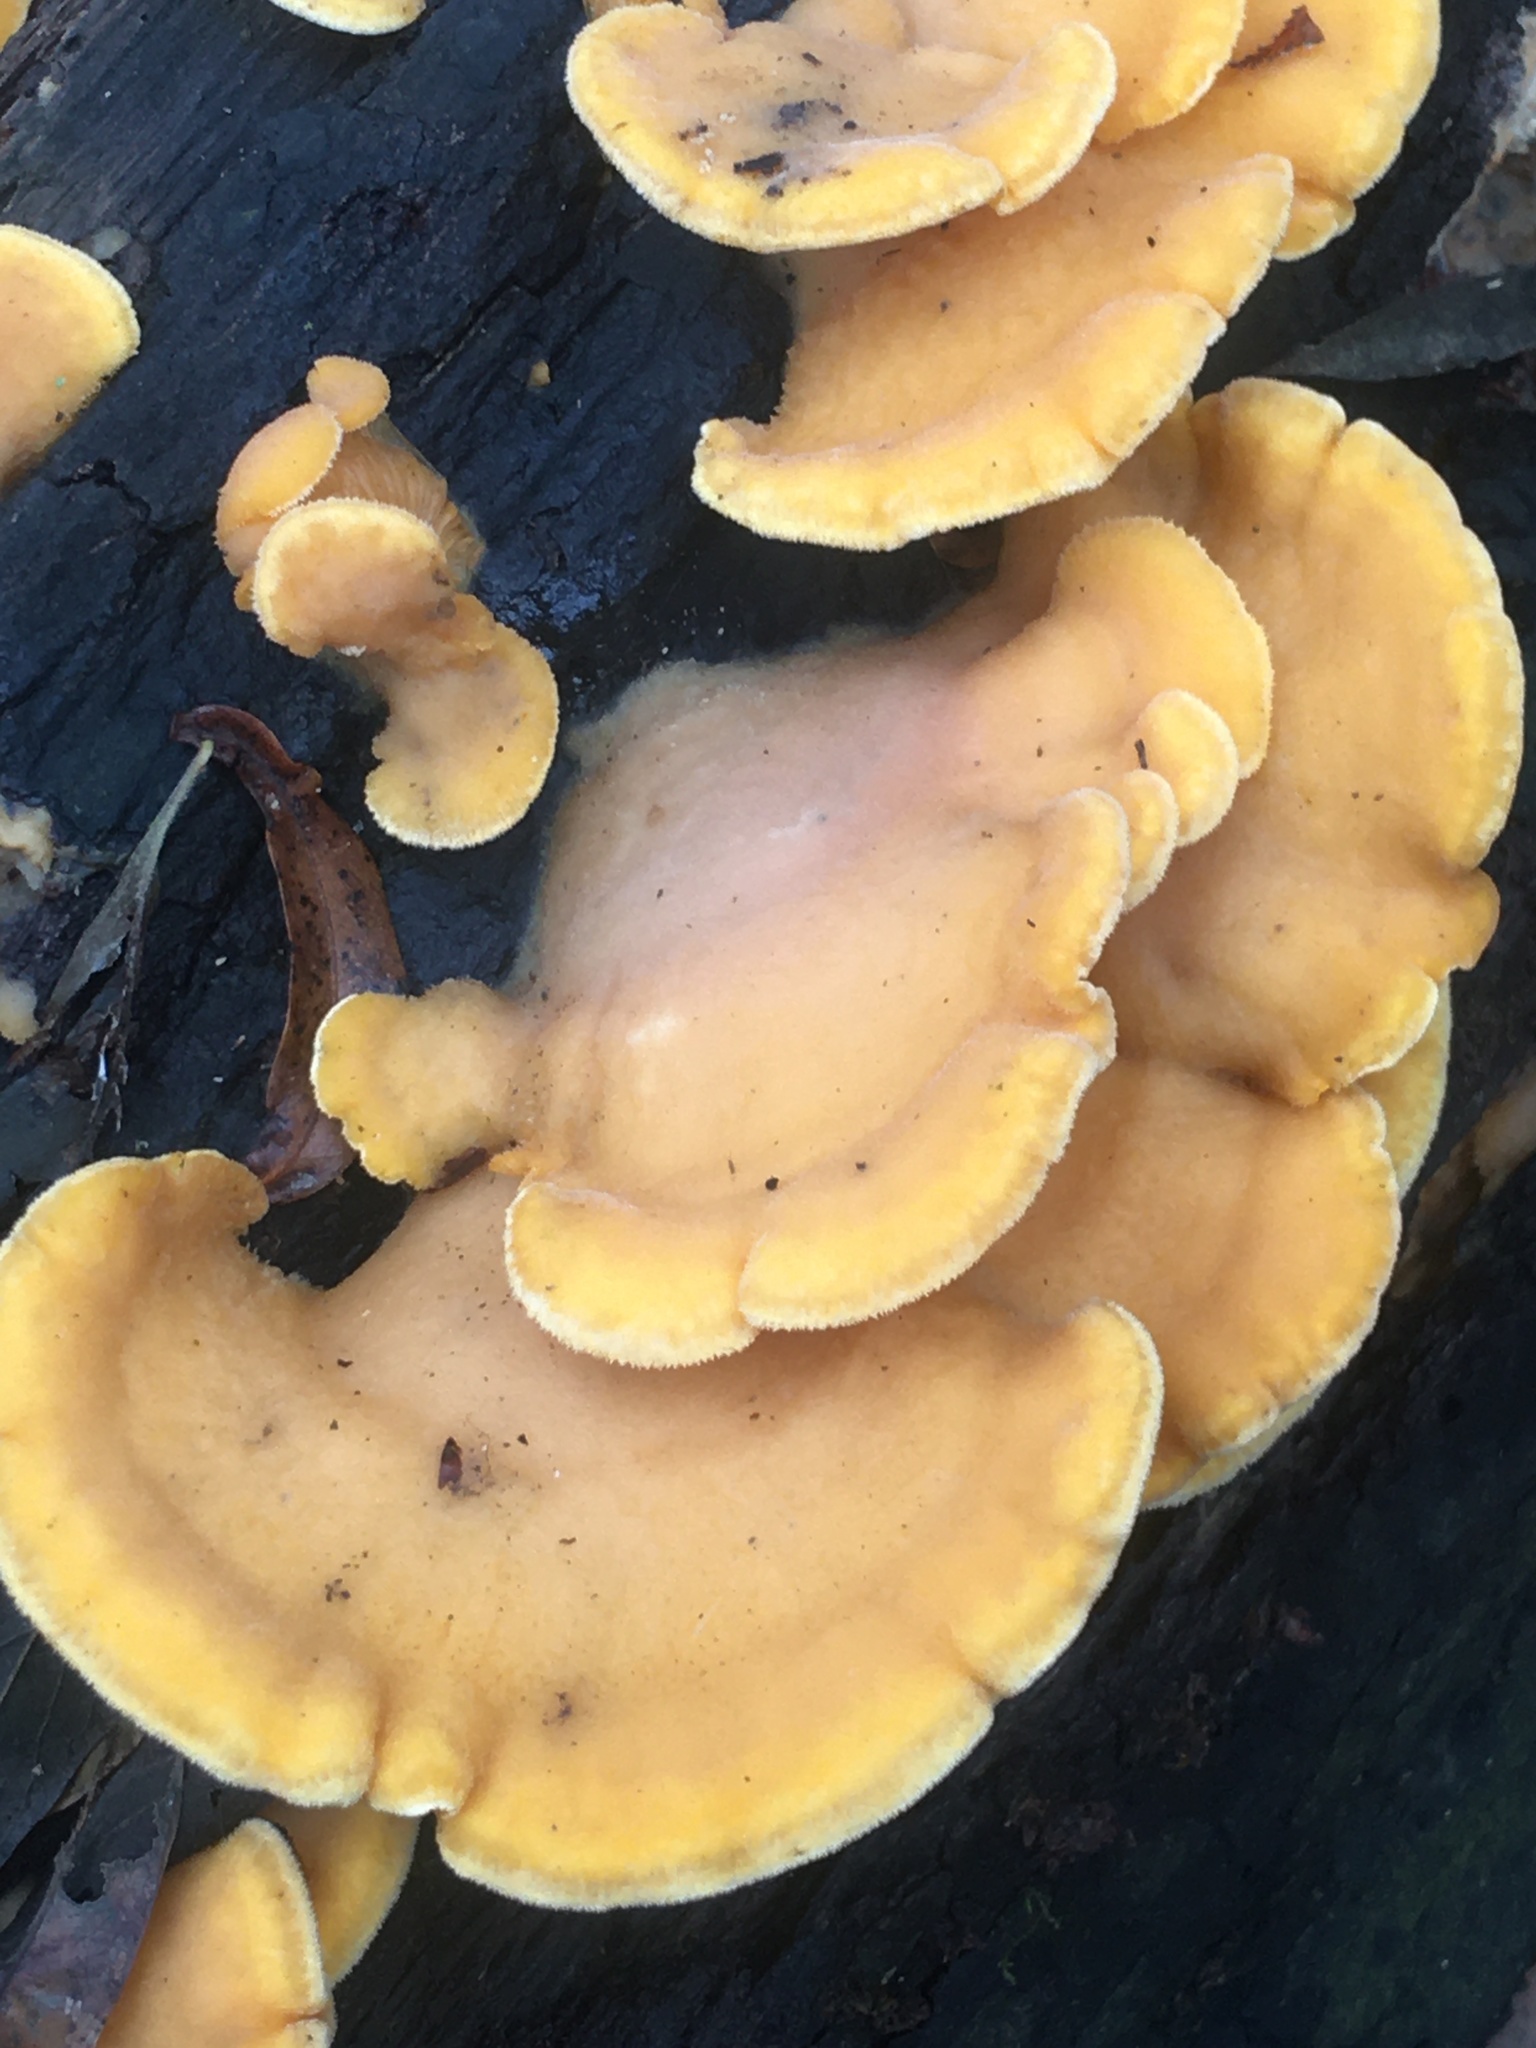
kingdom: Fungi
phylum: Basidiomycota
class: Agaricomycetes
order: Agaricales
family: Phyllotopsidaceae
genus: Phyllotopsis
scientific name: Phyllotopsis nidulans
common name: Orange mock oyster
